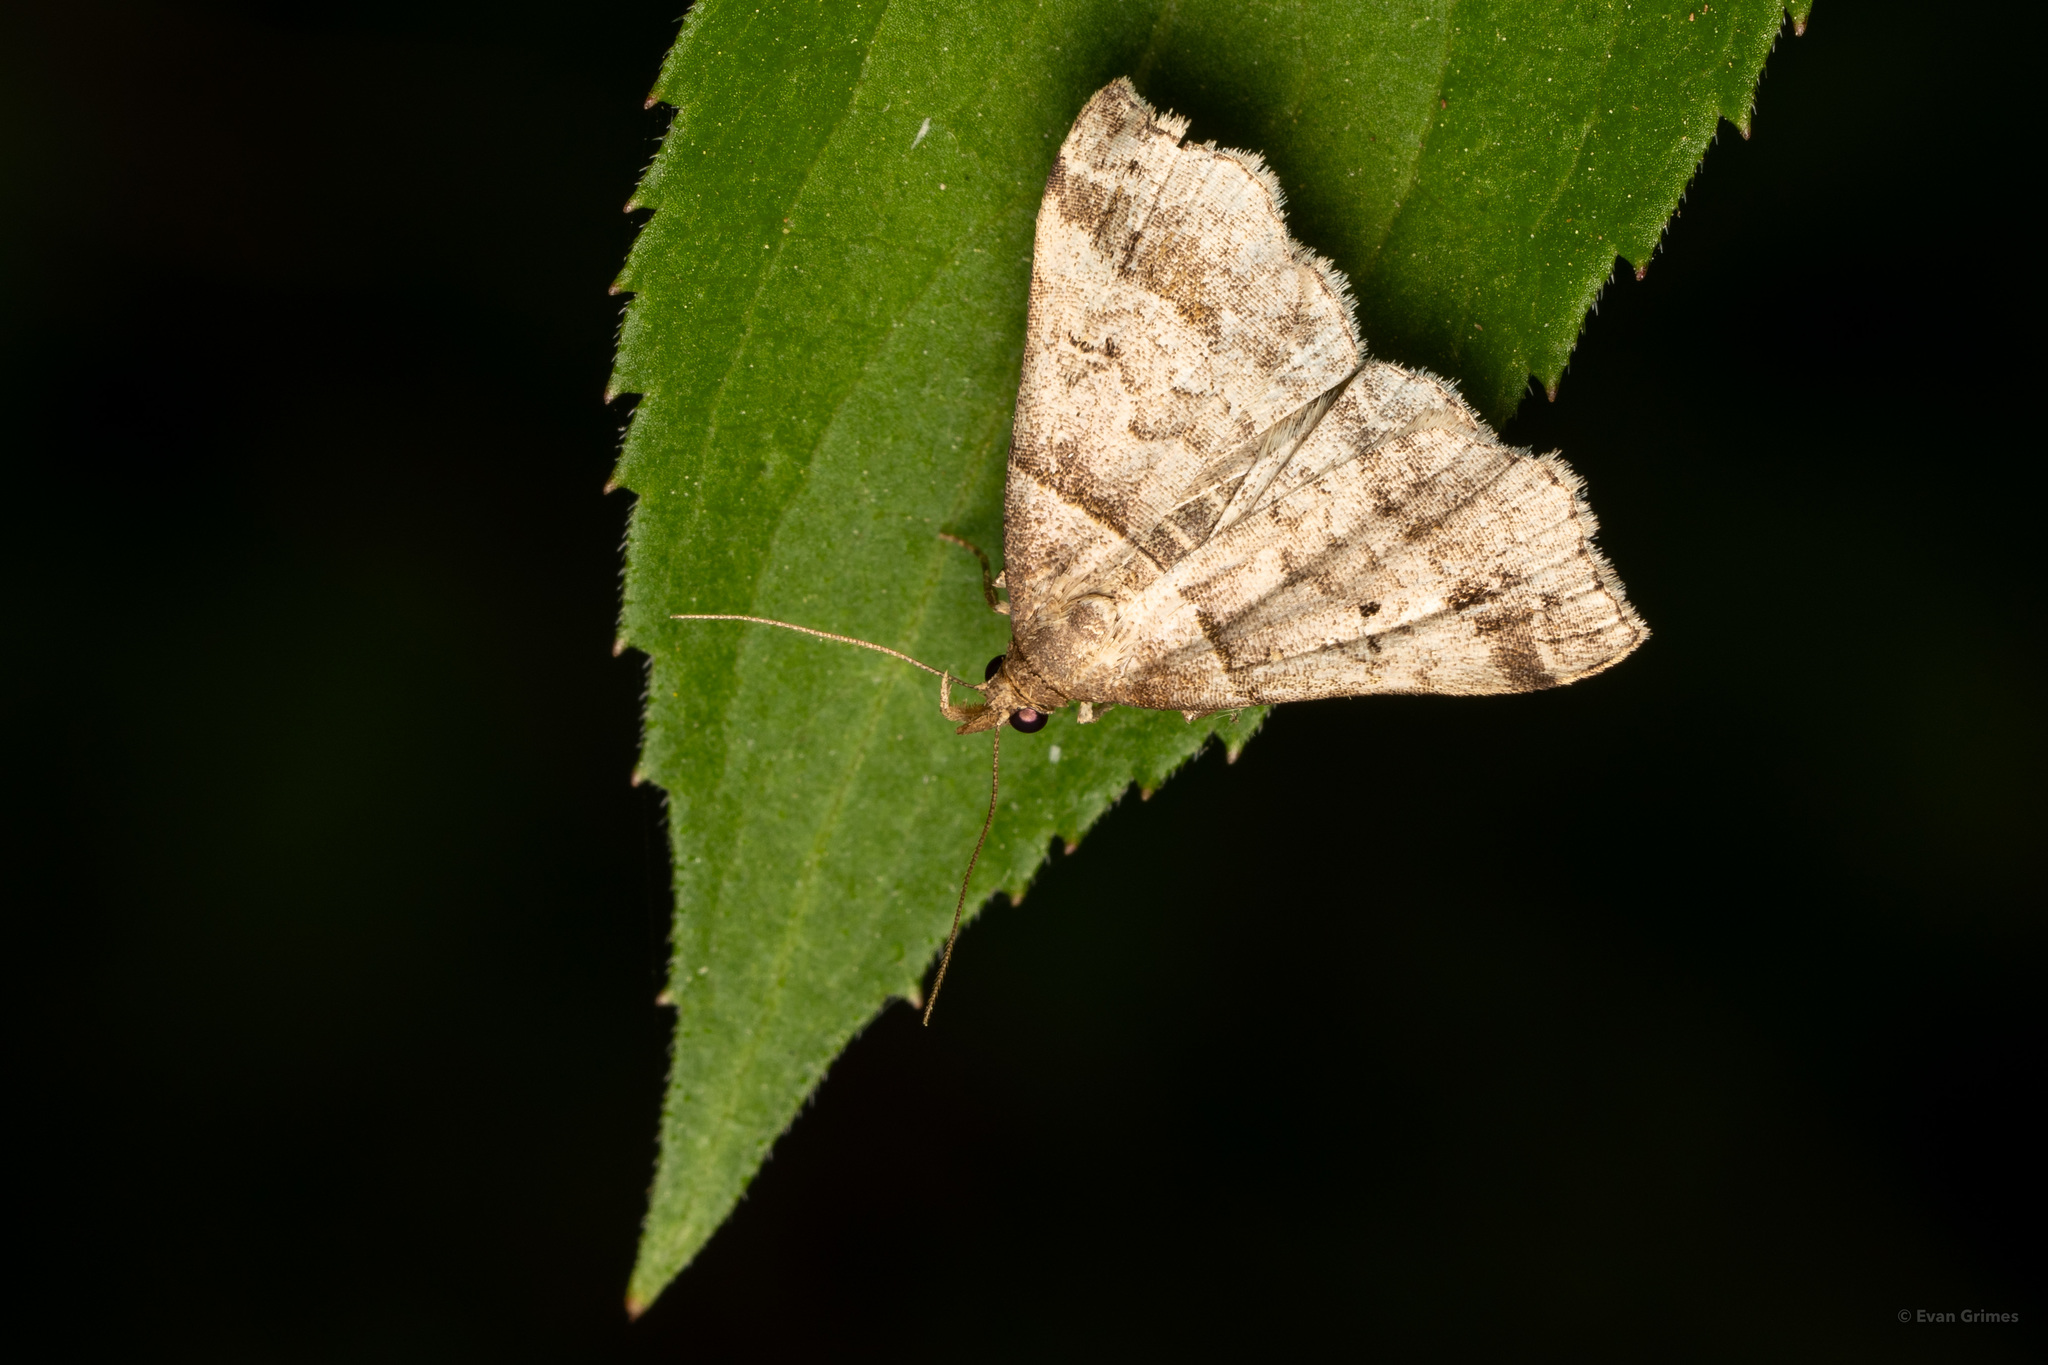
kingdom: Animalia
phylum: Arthropoda
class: Insecta
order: Lepidoptera
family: Erebidae
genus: Phaeolita
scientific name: Phaeolita pyramusalis
